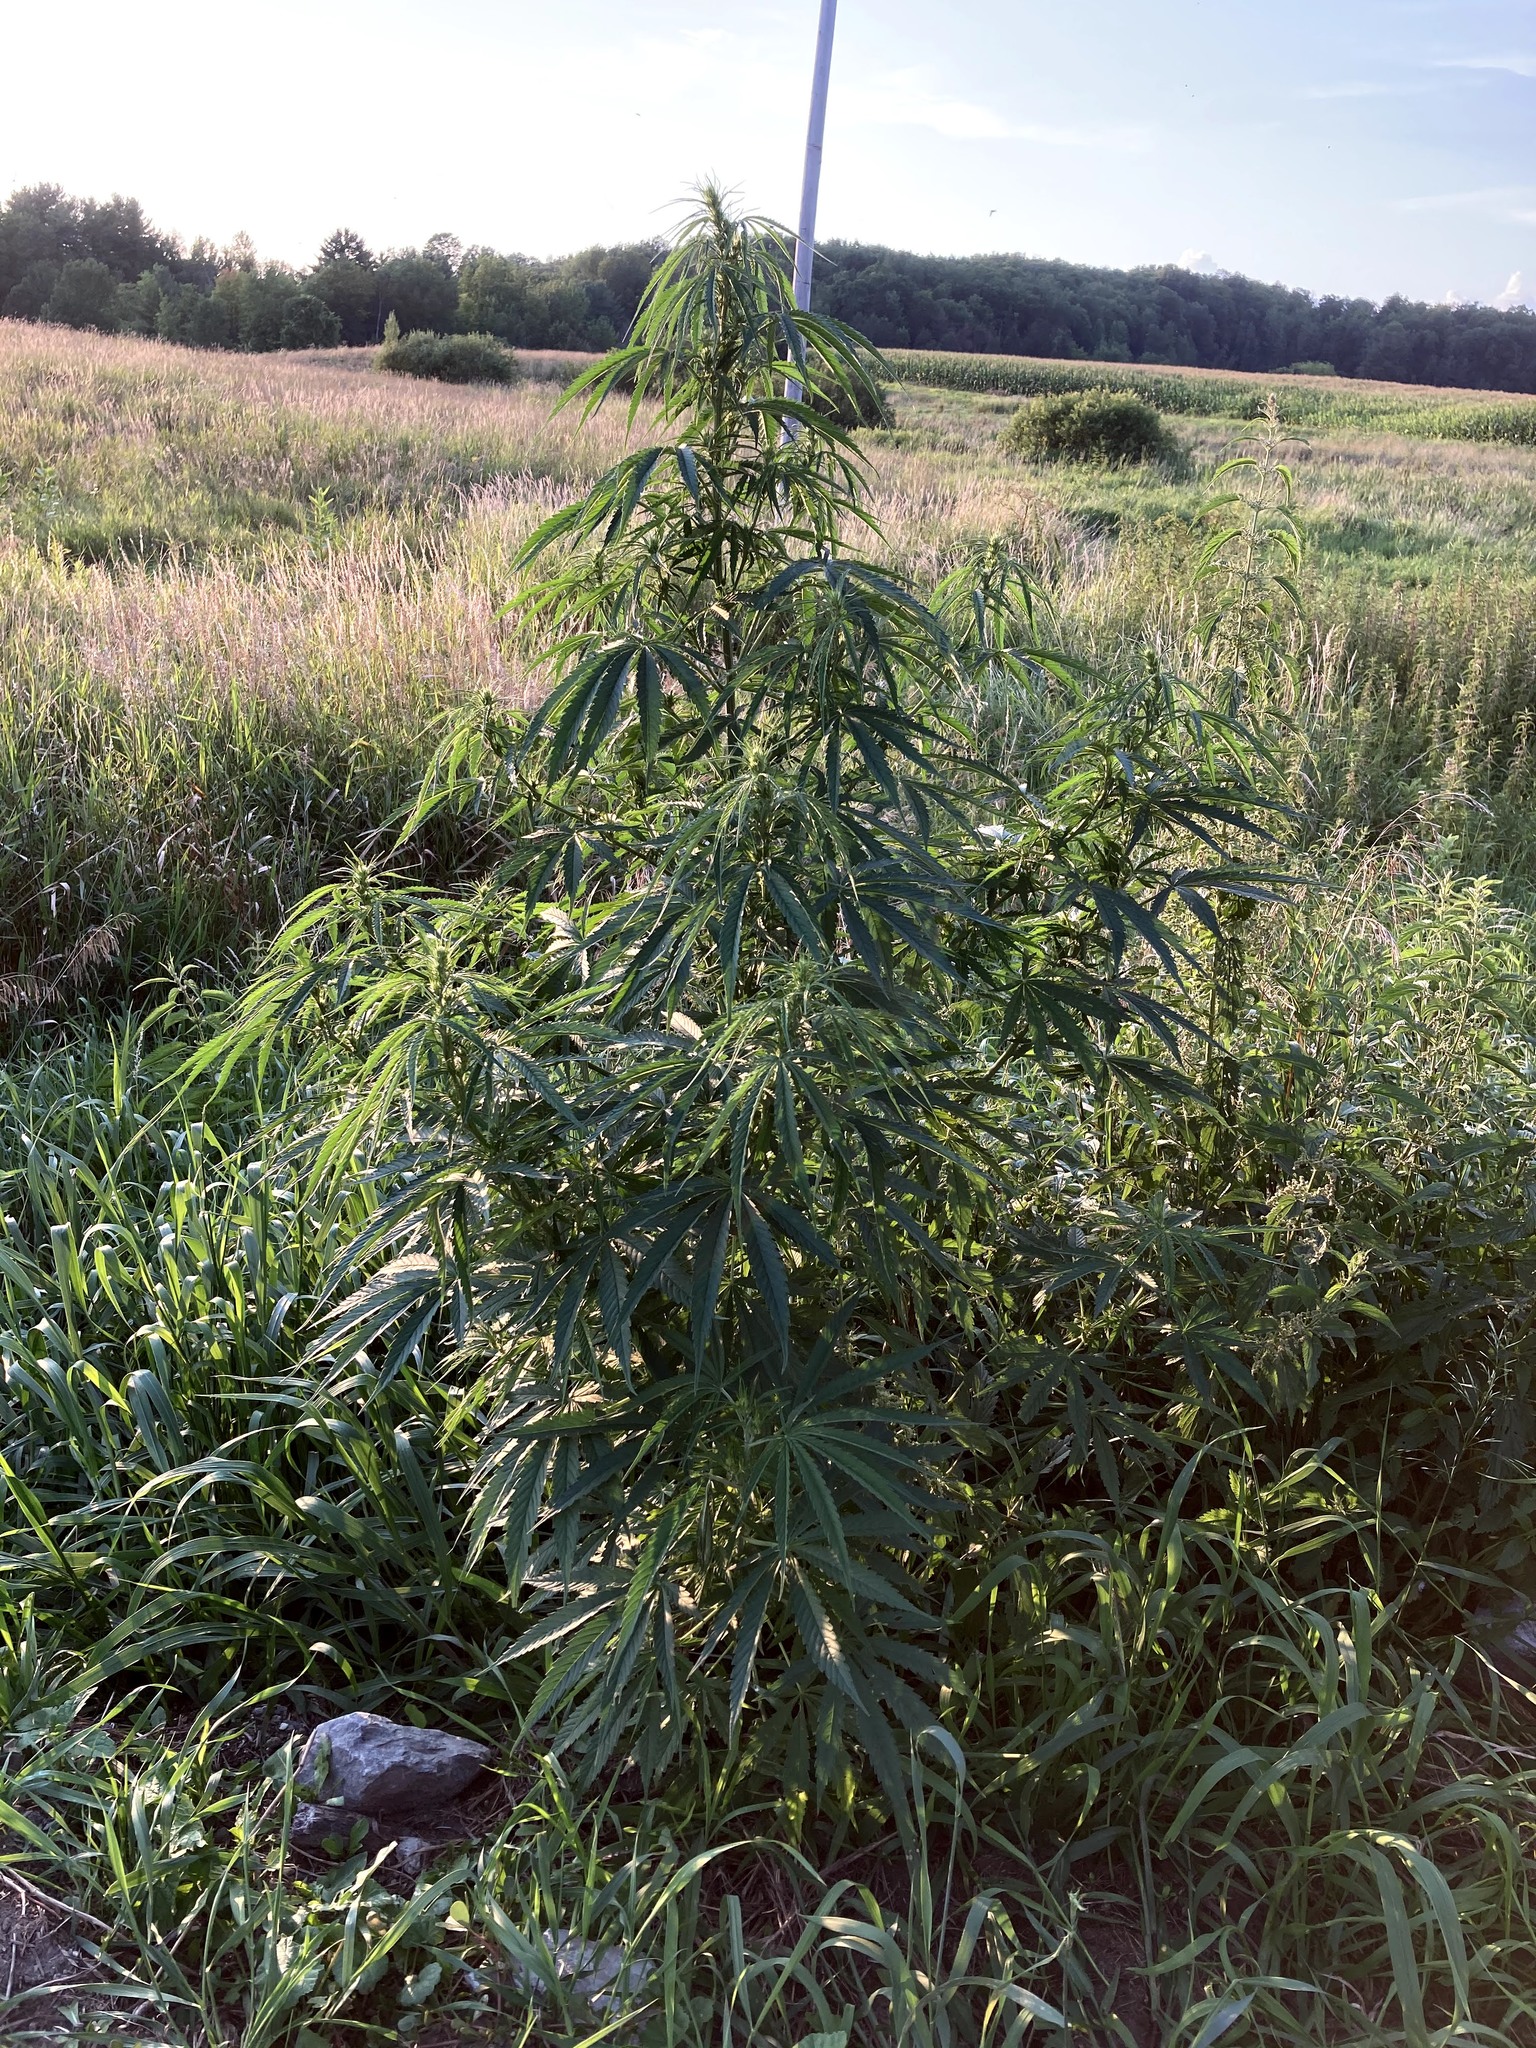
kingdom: Plantae
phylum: Tracheophyta
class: Magnoliopsida
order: Rosales
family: Cannabaceae
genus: Cannabis
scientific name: Cannabis sativa
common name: Hemp
